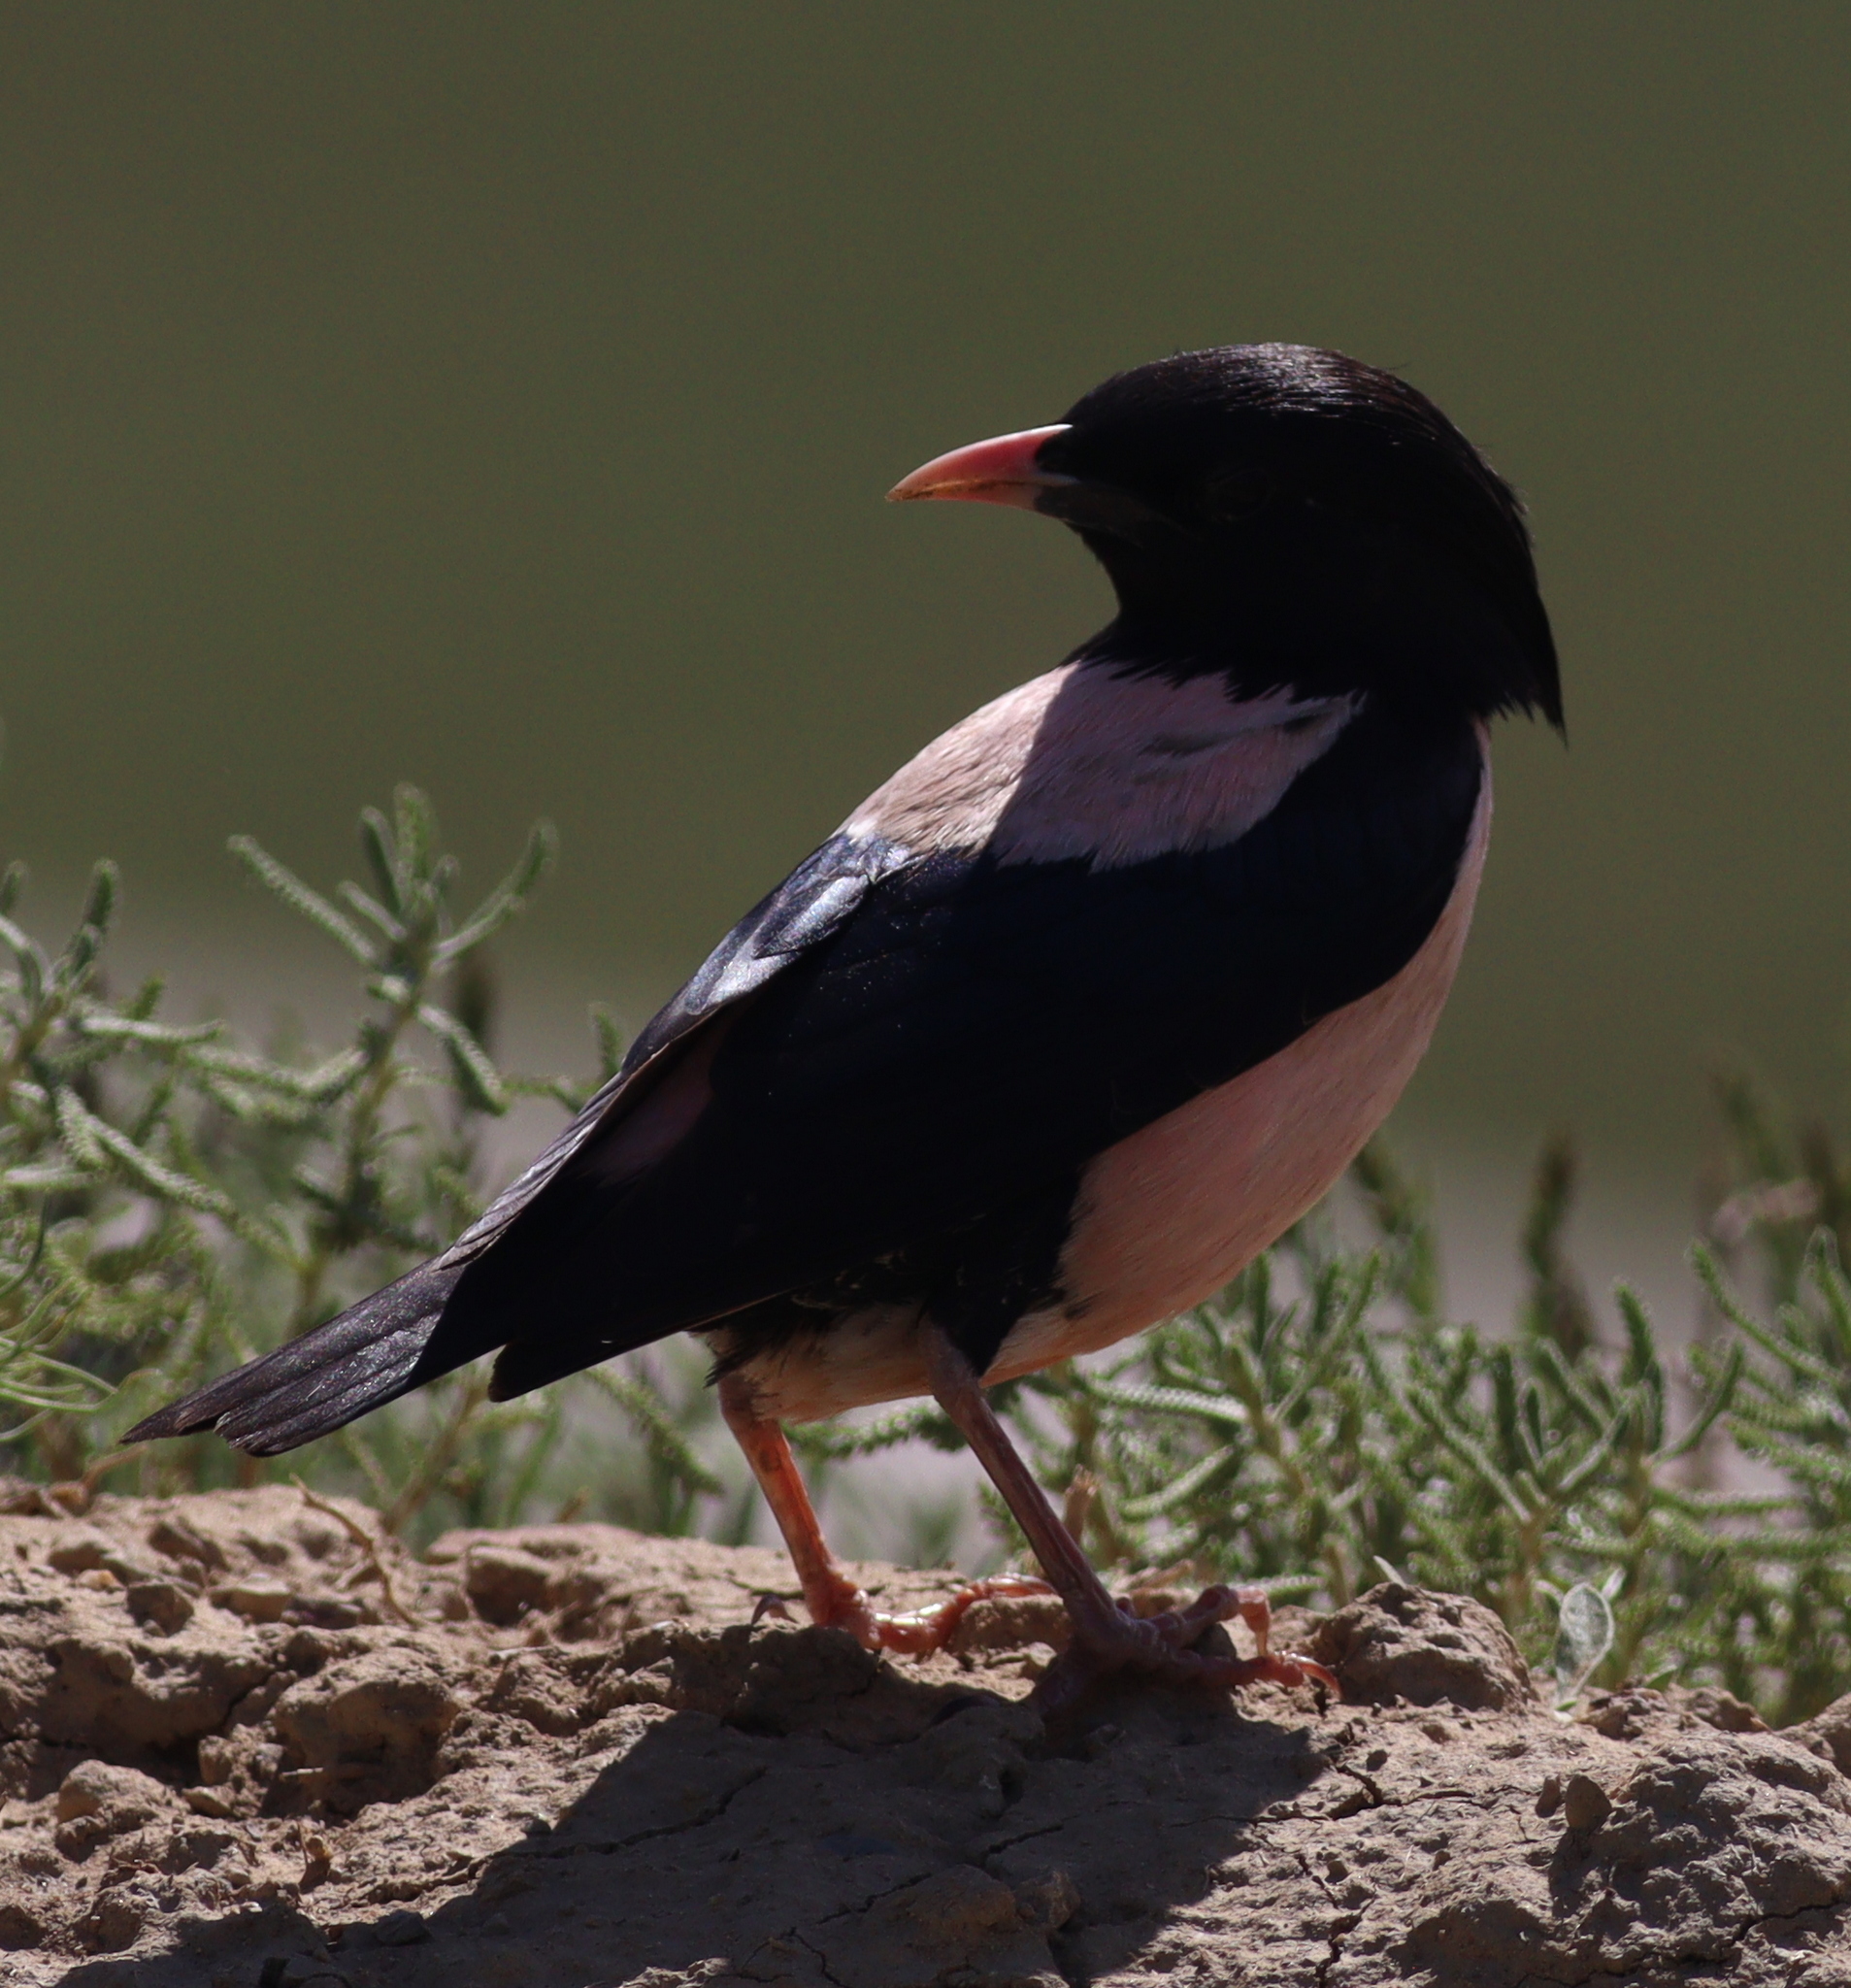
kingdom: Animalia
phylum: Chordata
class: Aves
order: Passeriformes
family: Sturnidae
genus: Pastor
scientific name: Pastor roseus
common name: Rosy starling
